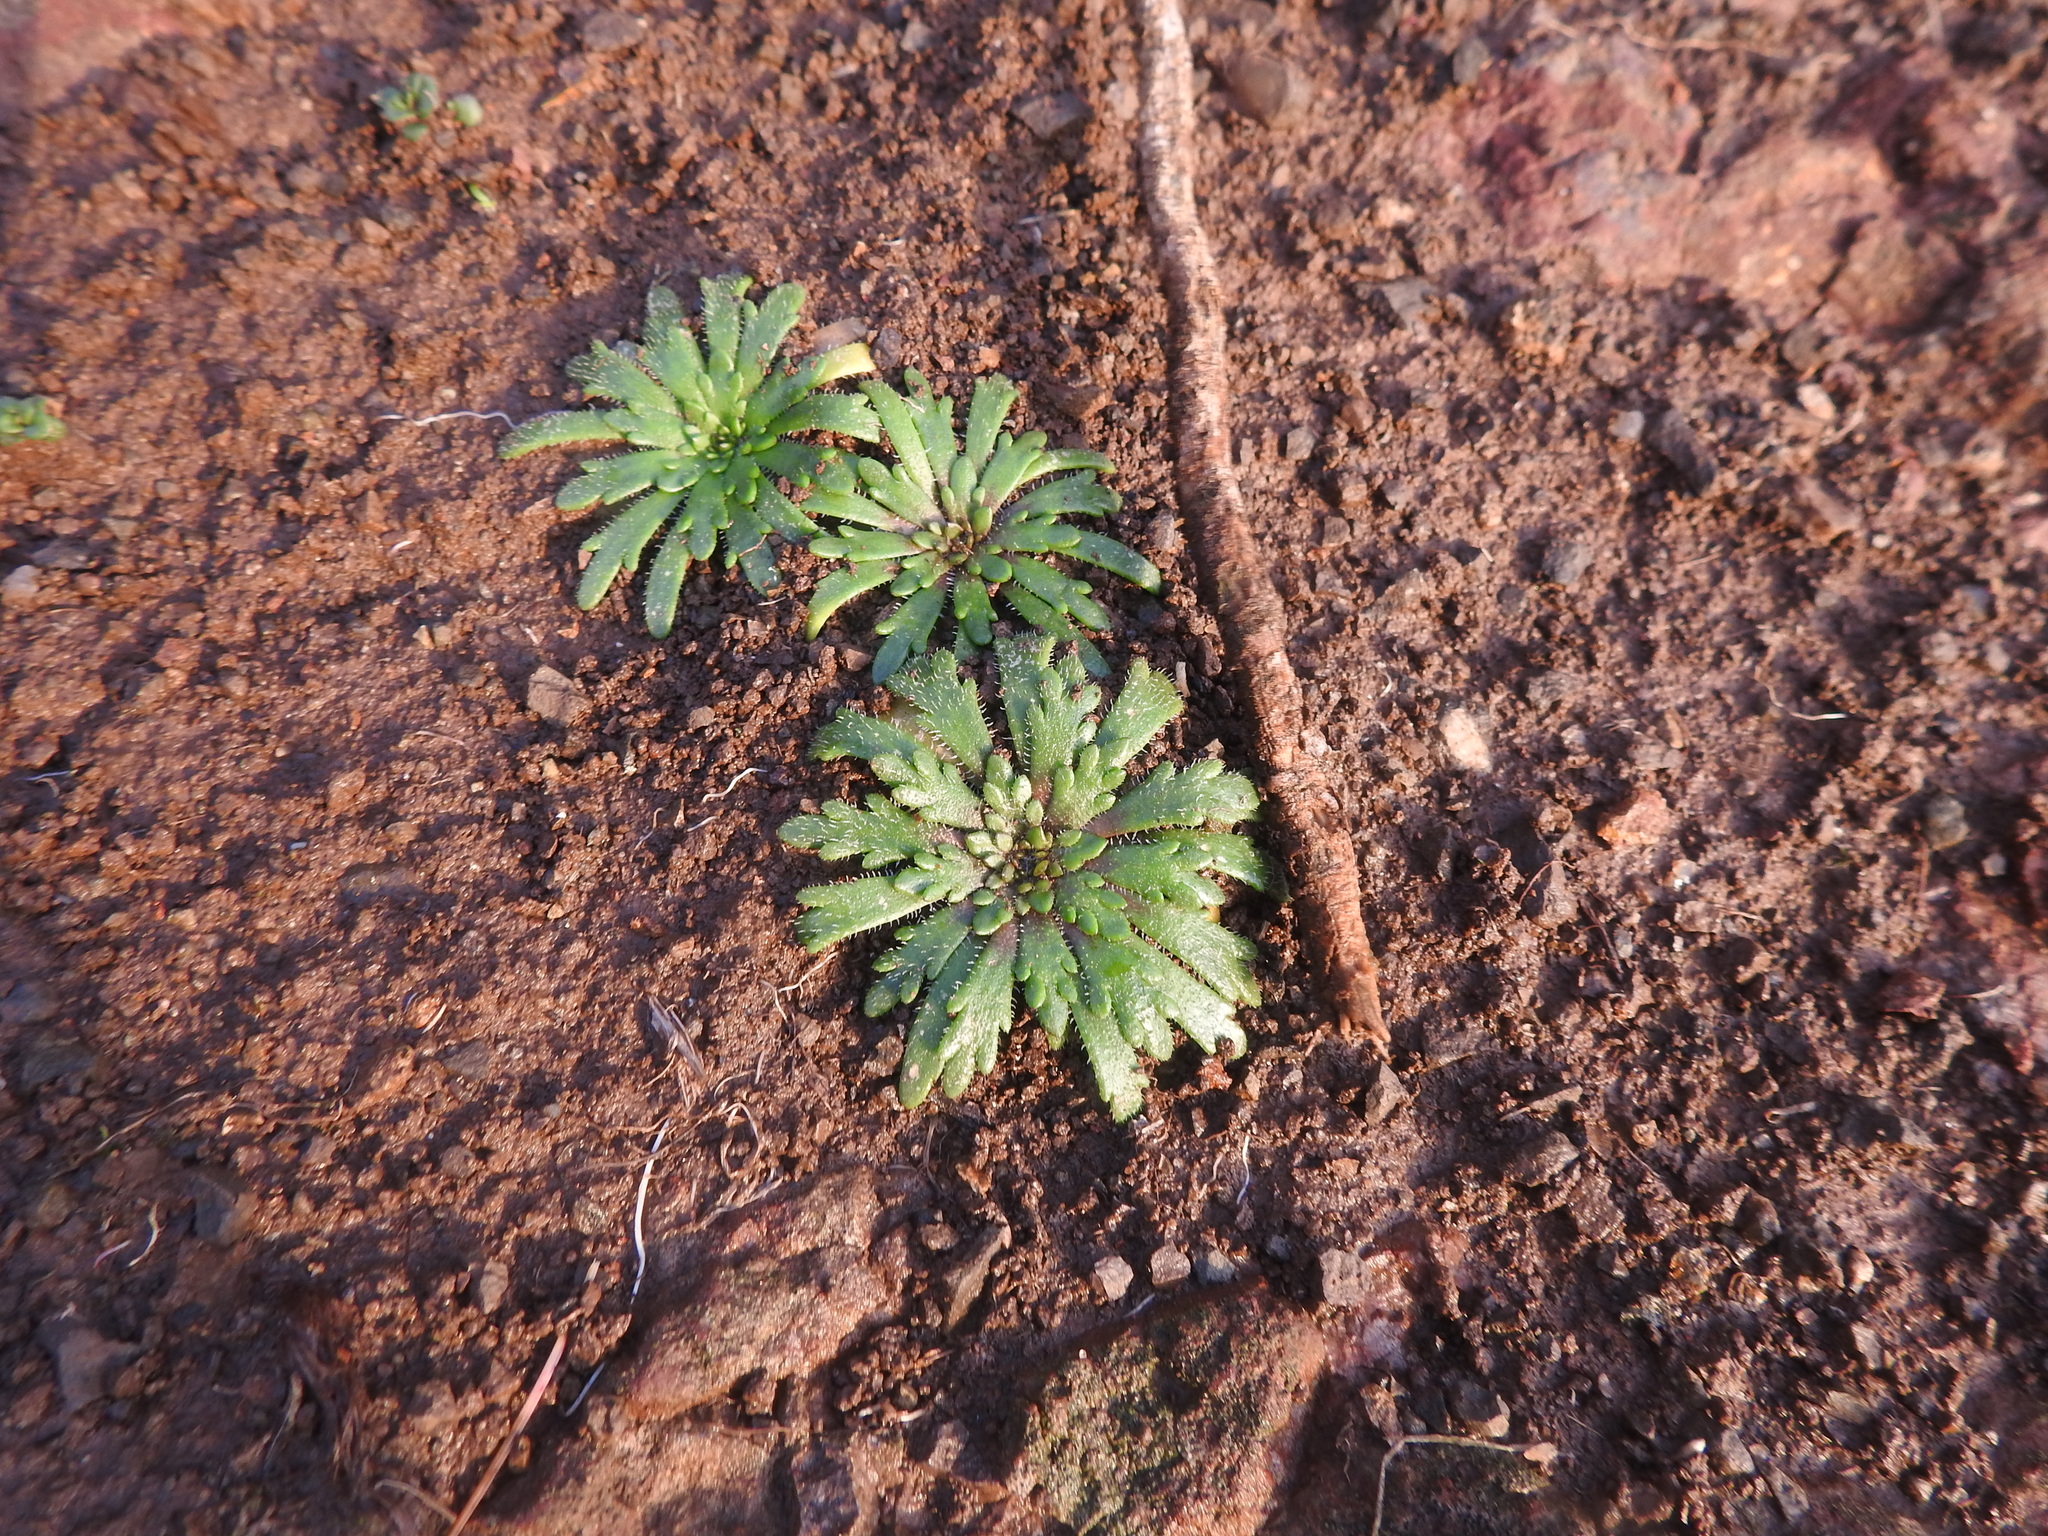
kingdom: Plantae
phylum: Tracheophyta
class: Magnoliopsida
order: Lamiales
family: Plantaginaceae
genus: Plantago
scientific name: Plantago coronopus
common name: Buck's-horn plantain
